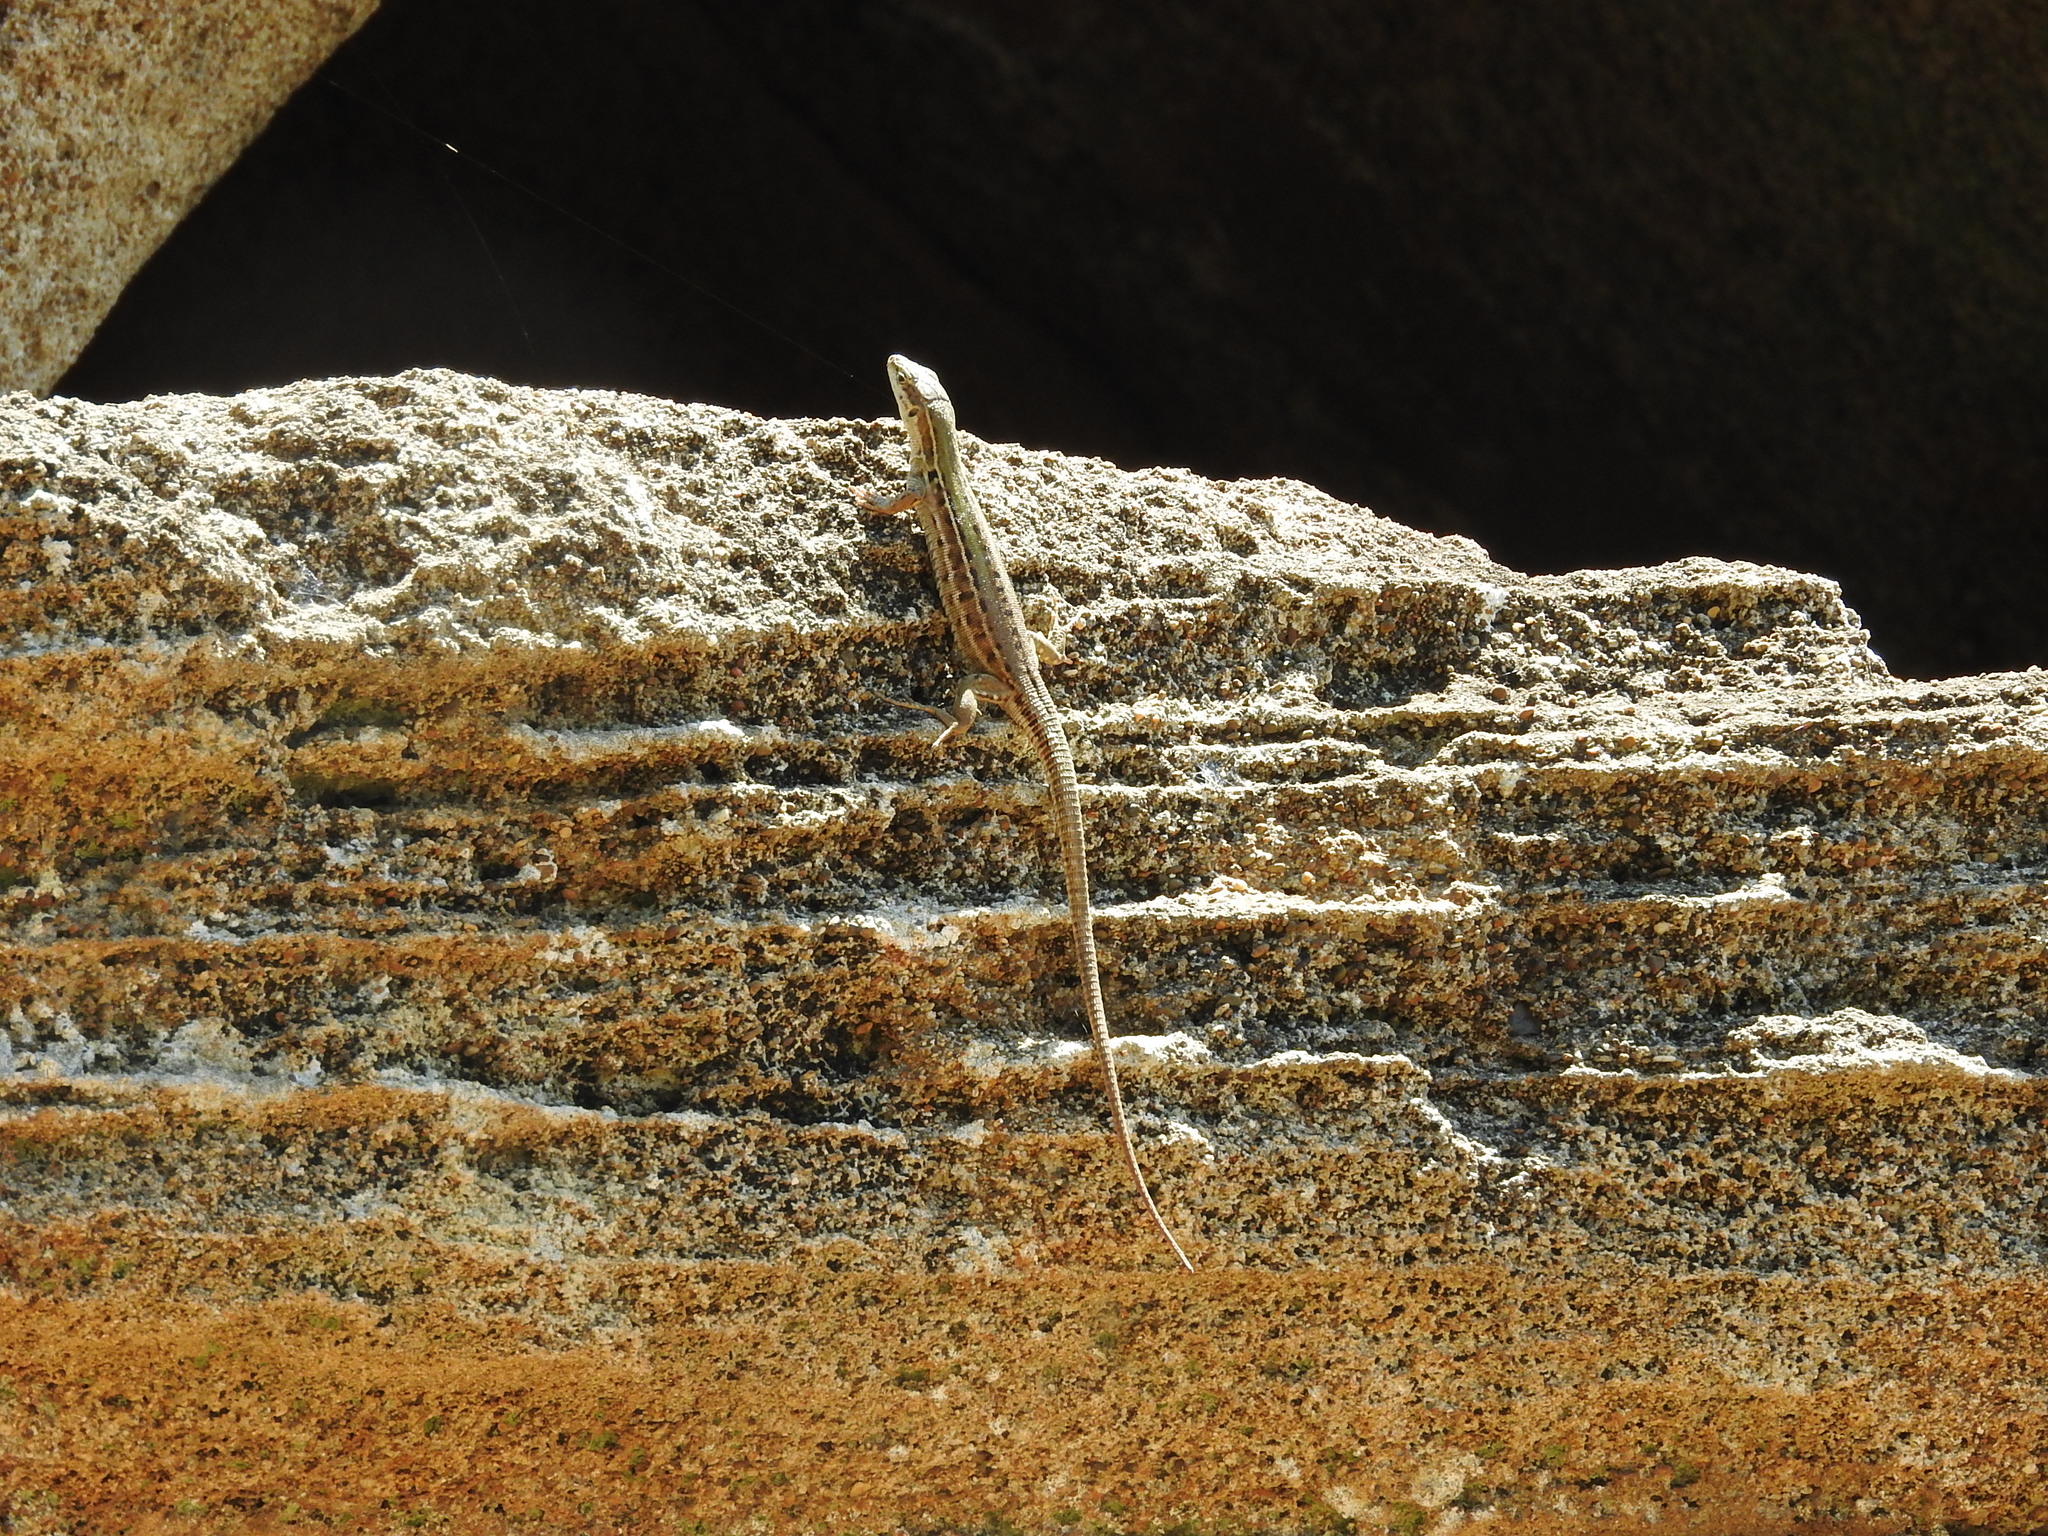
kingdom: Animalia
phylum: Chordata
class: Squamata
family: Lacertidae
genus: Podarcis
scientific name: Podarcis siculus
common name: Italian wall lizard
